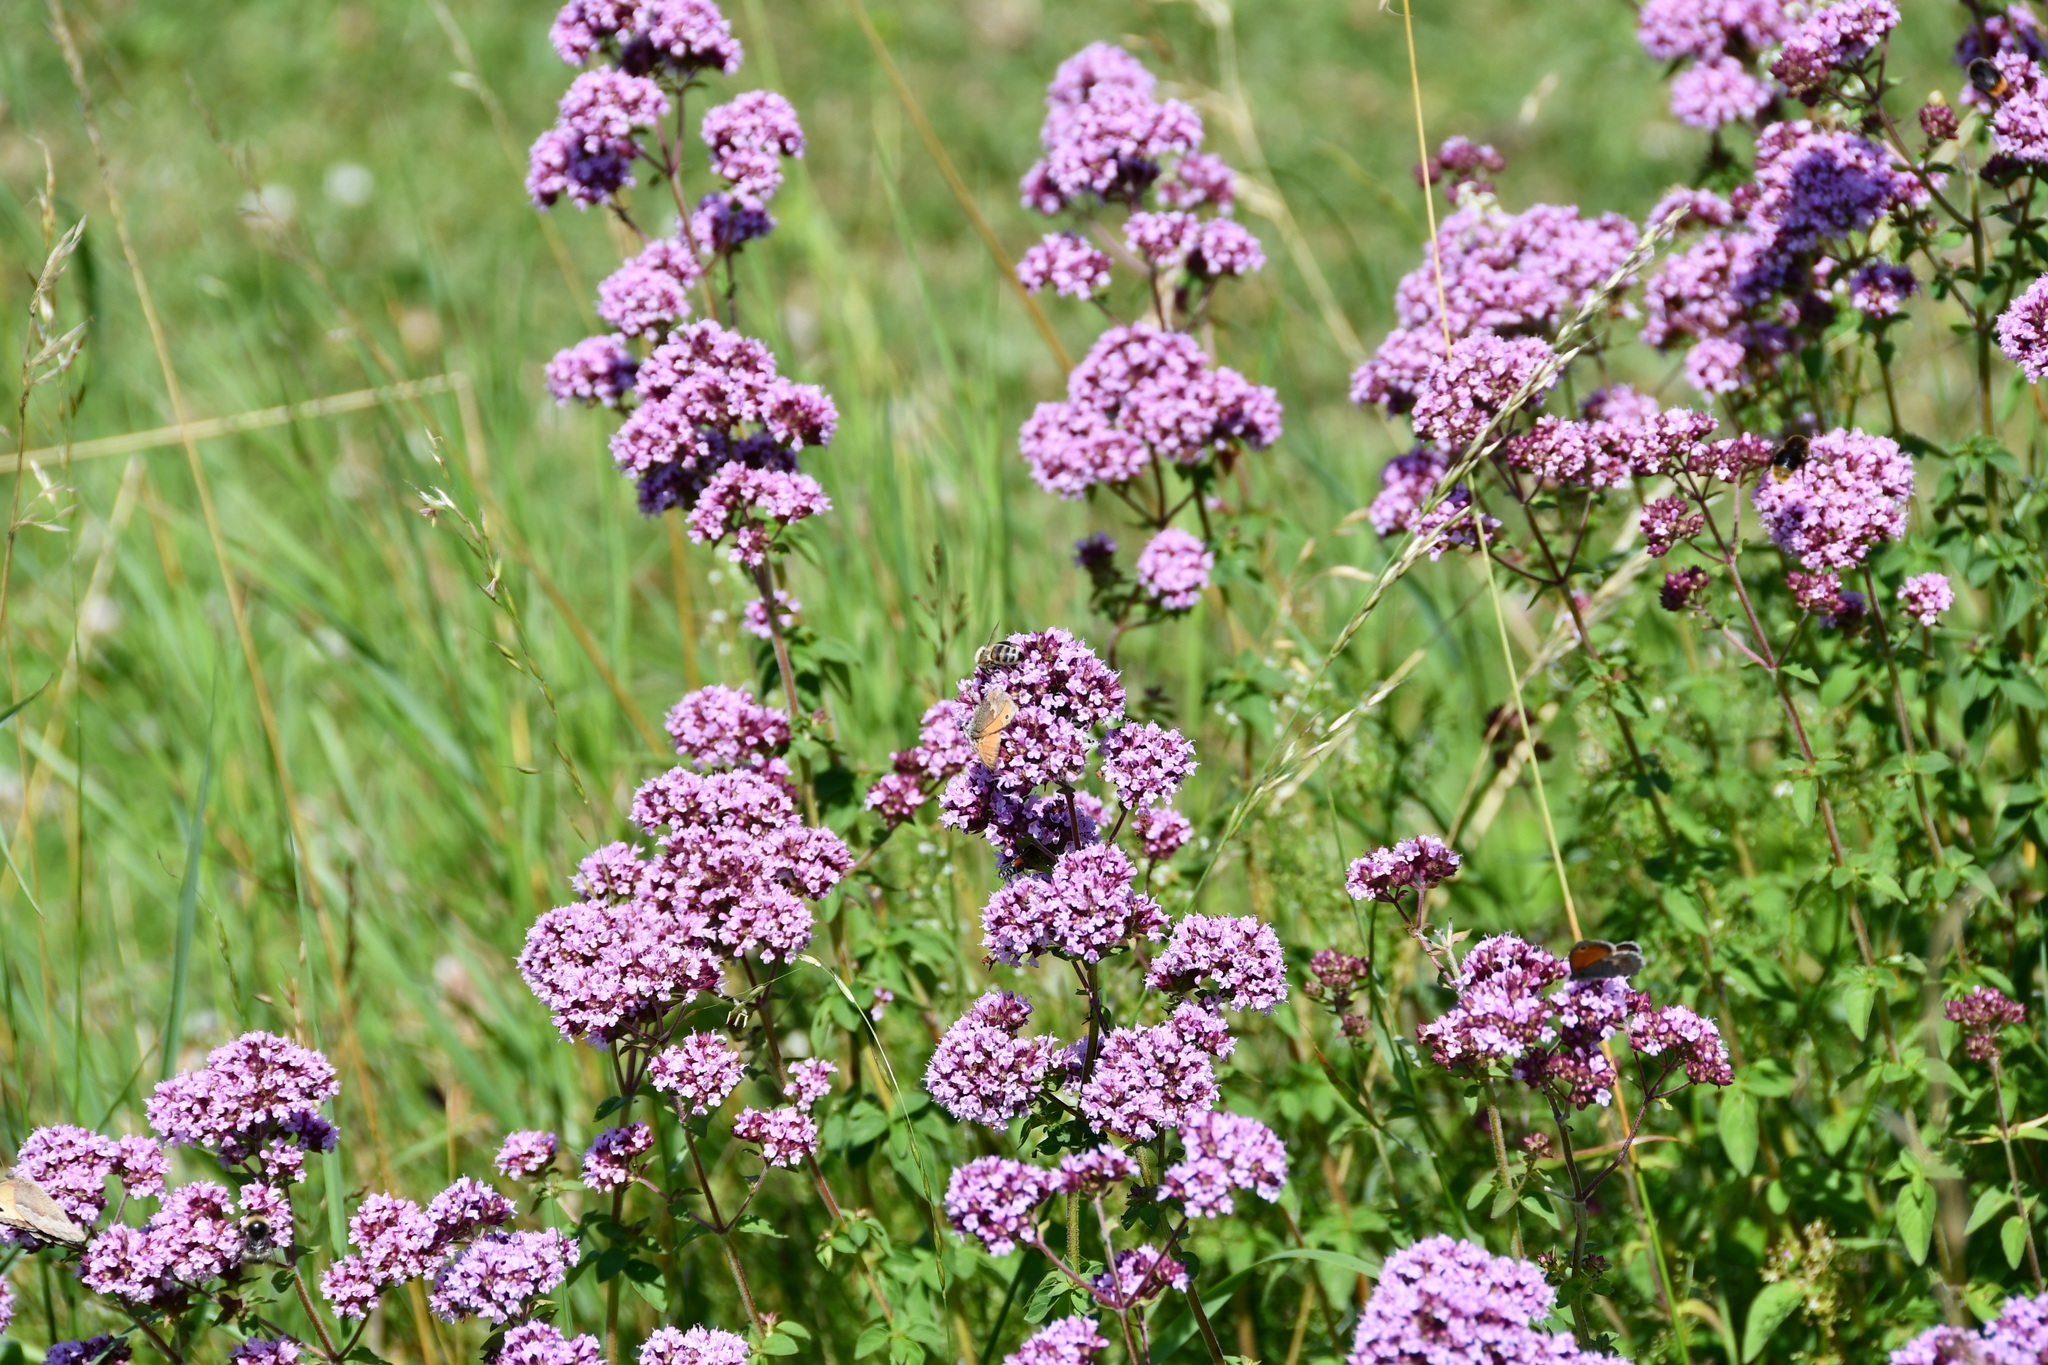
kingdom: Animalia
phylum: Arthropoda
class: Insecta
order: Hymenoptera
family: Apidae
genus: Apis
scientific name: Apis mellifera
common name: Honey bee
